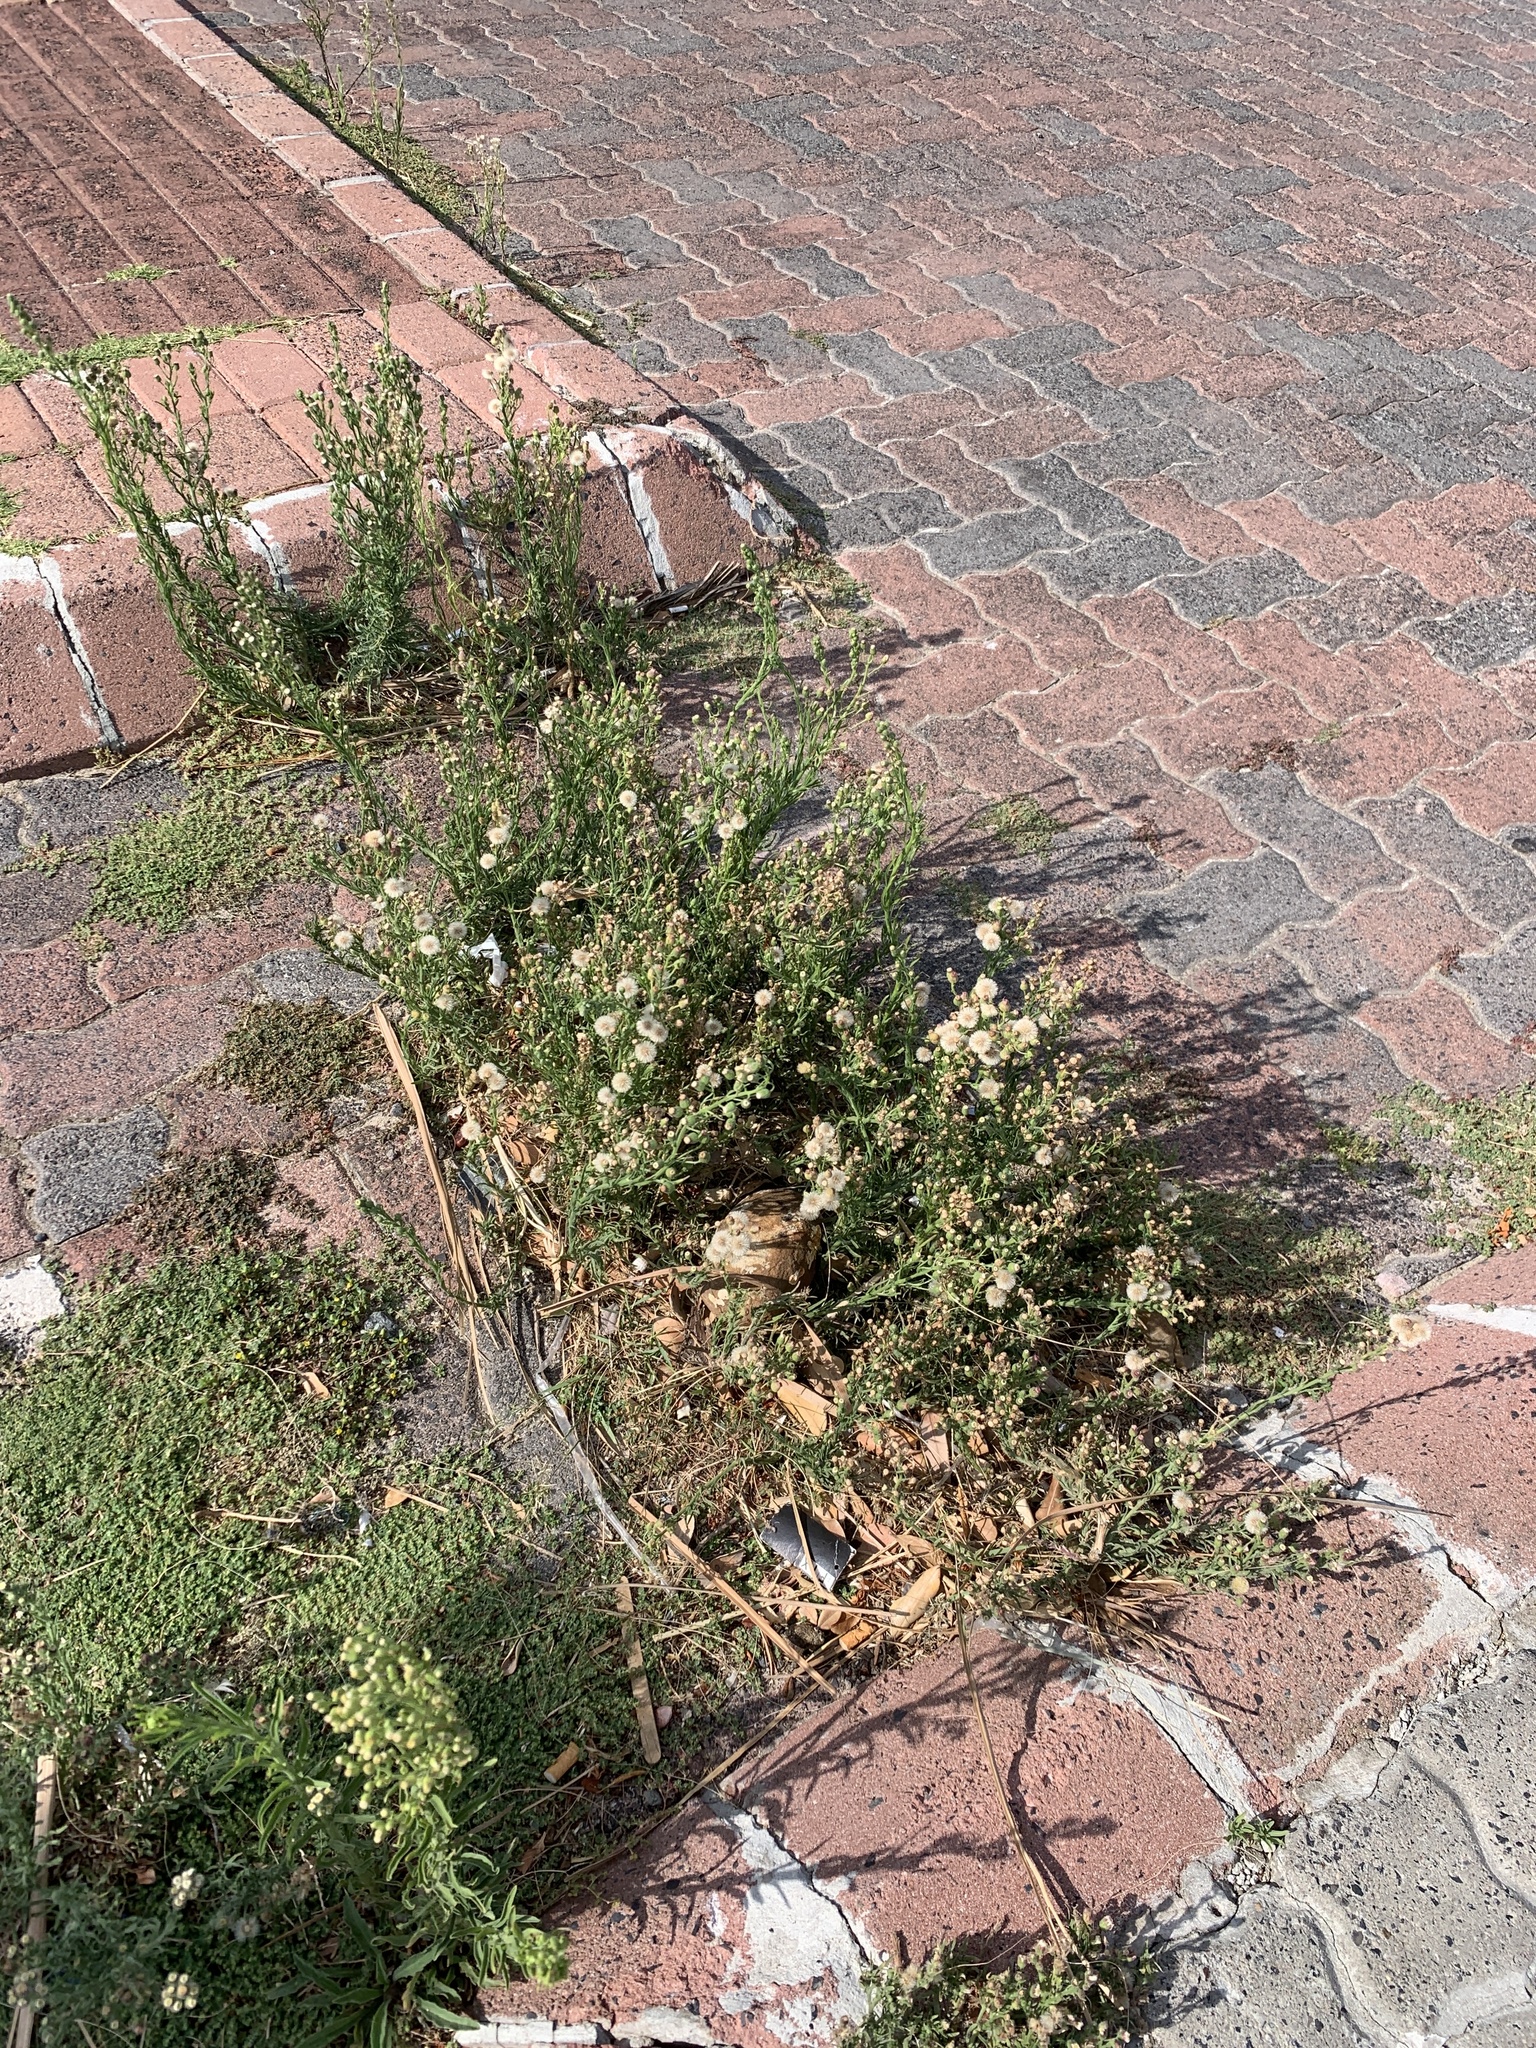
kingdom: Plantae
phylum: Tracheophyta
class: Magnoliopsida
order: Asterales
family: Asteraceae
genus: Erigeron
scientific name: Erigeron bonariensis
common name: Argentine fleabane
